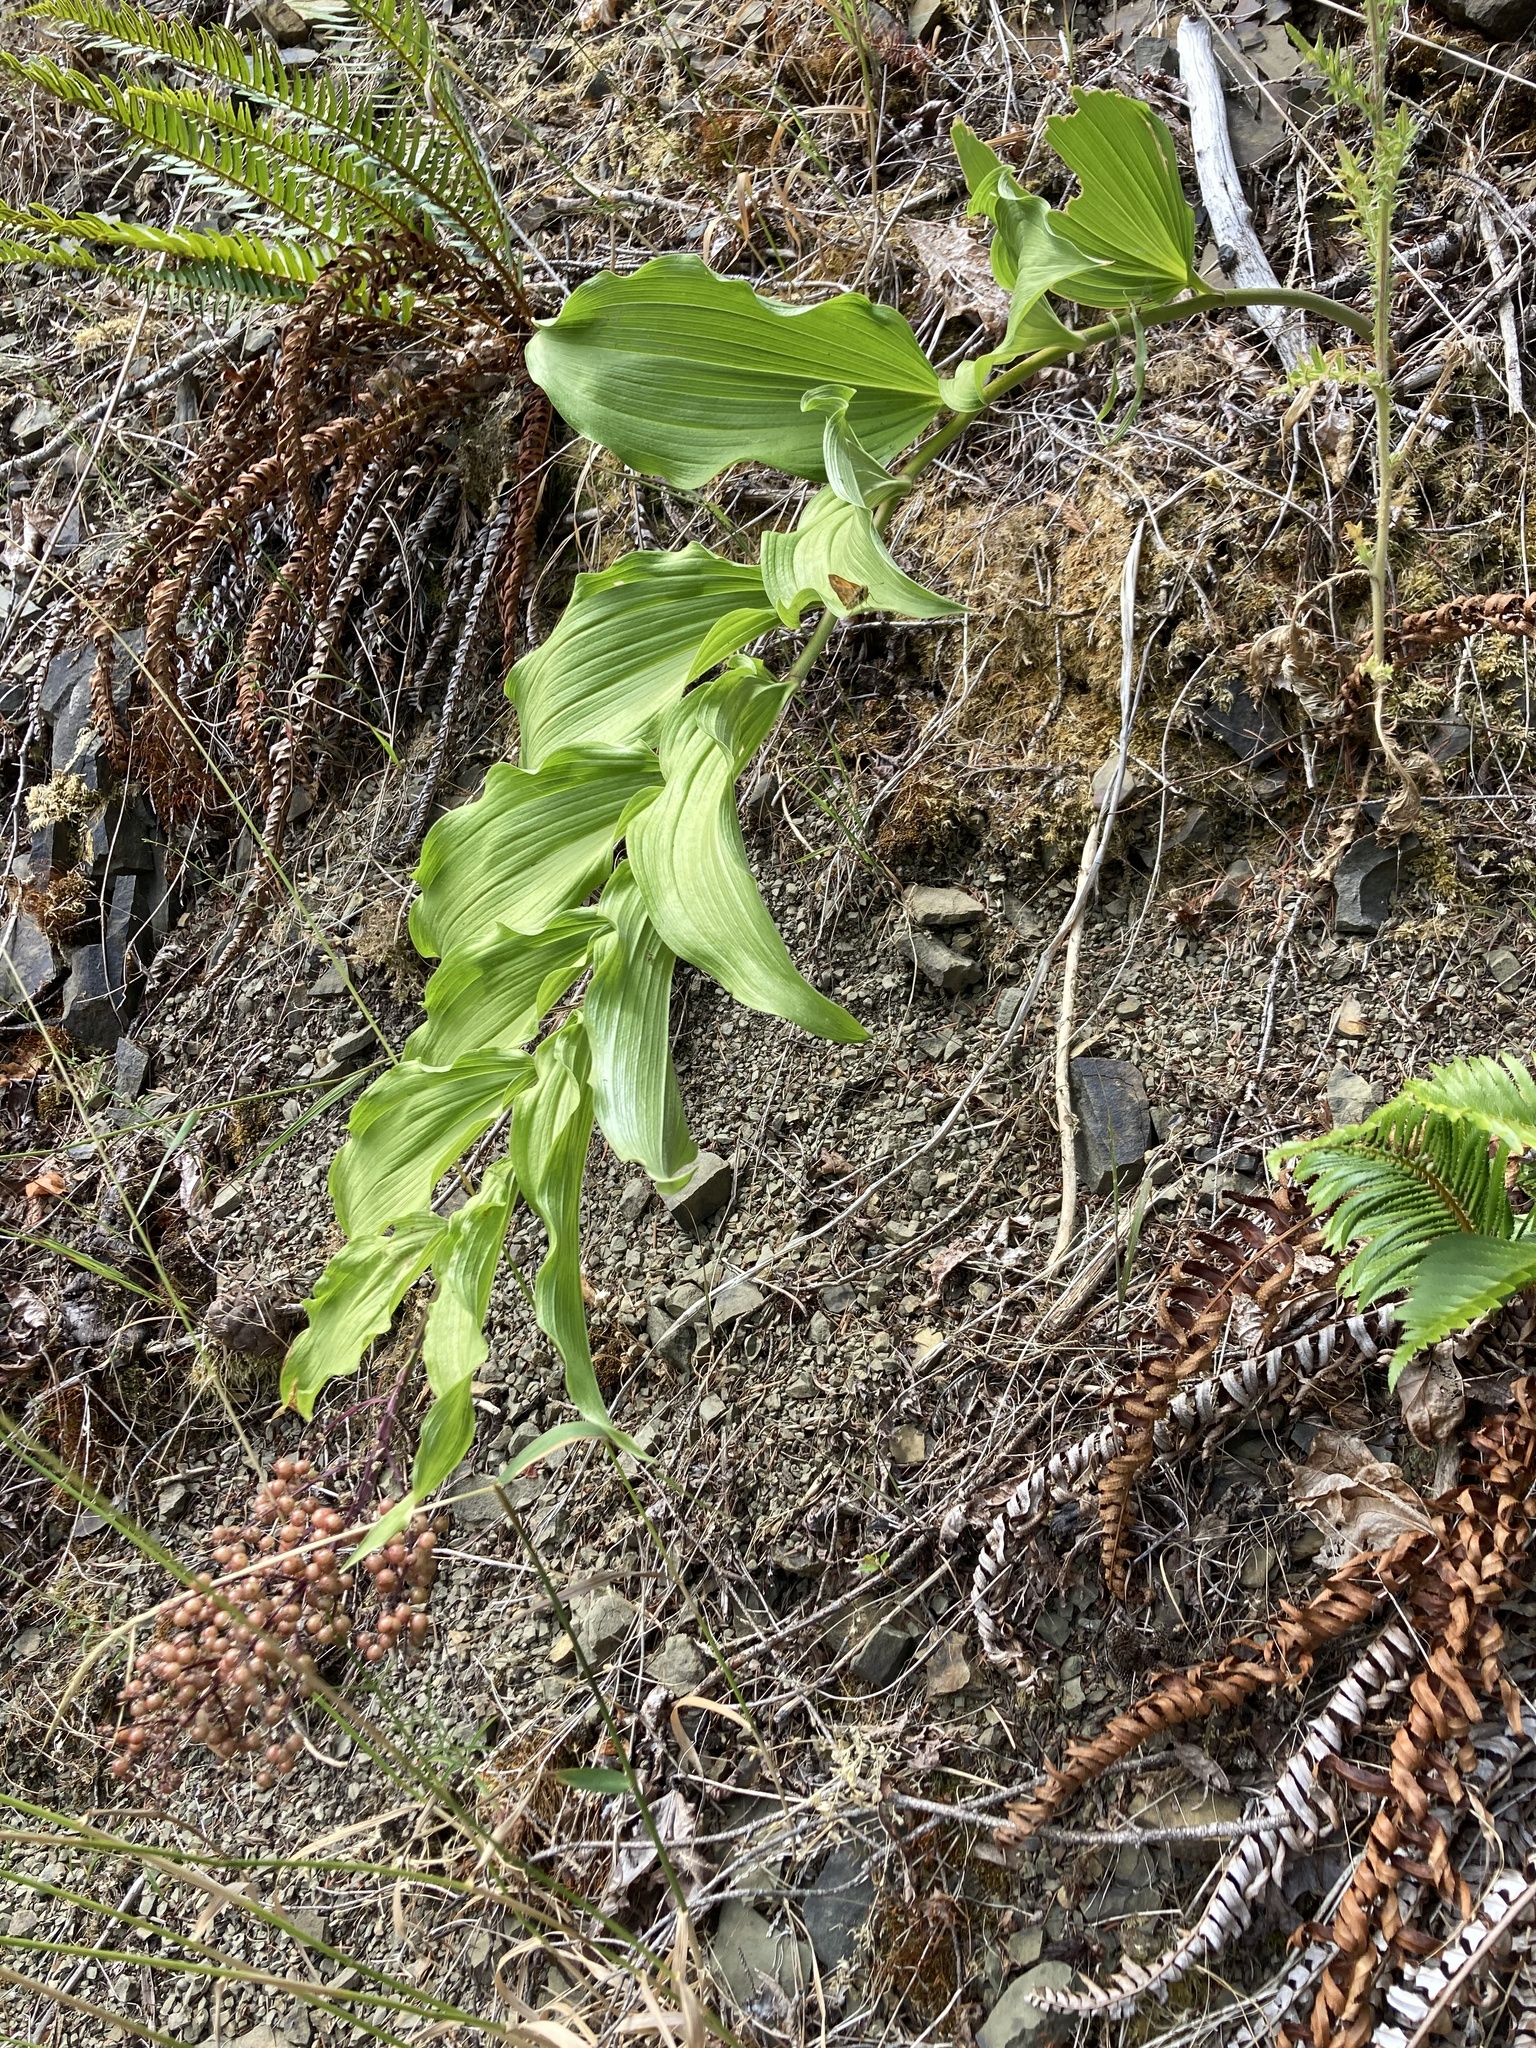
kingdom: Plantae
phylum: Tracheophyta
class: Liliopsida
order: Asparagales
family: Asparagaceae
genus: Maianthemum
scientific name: Maianthemum racemosum
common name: False spikenard
